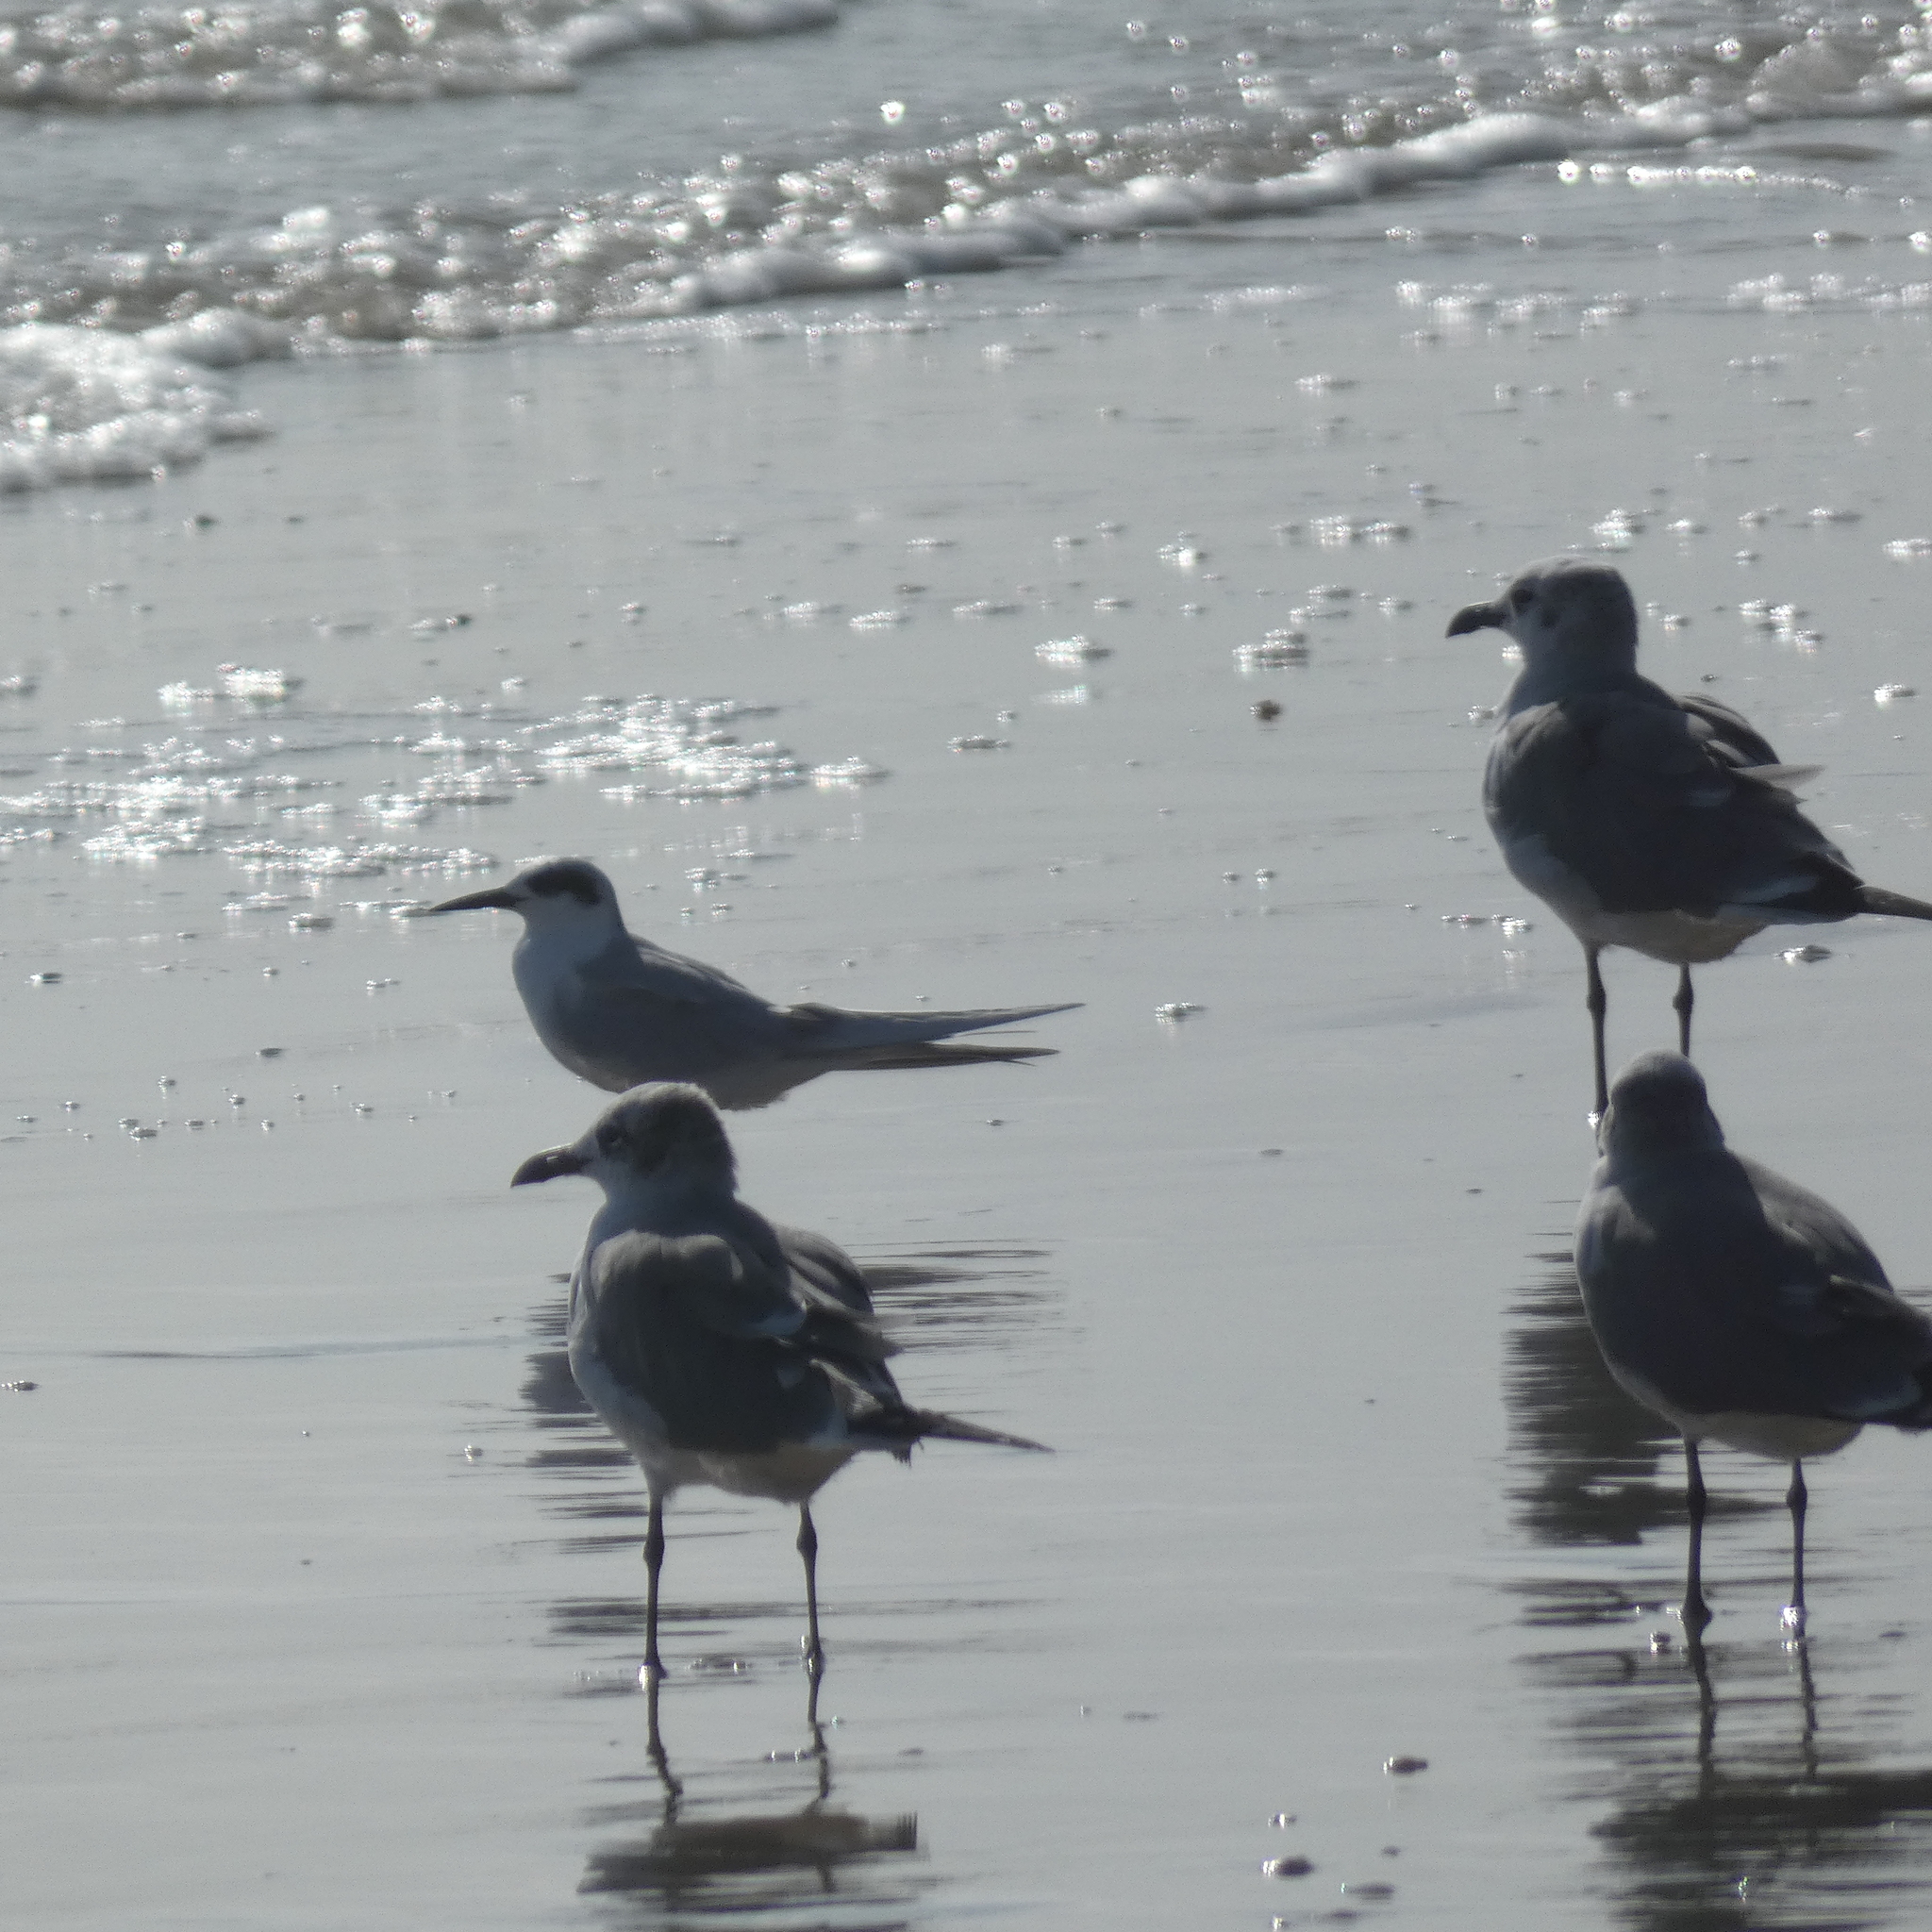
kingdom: Animalia
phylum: Chordata
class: Aves
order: Charadriiformes
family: Laridae
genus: Sterna
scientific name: Sterna forsteri
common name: Forster's tern
